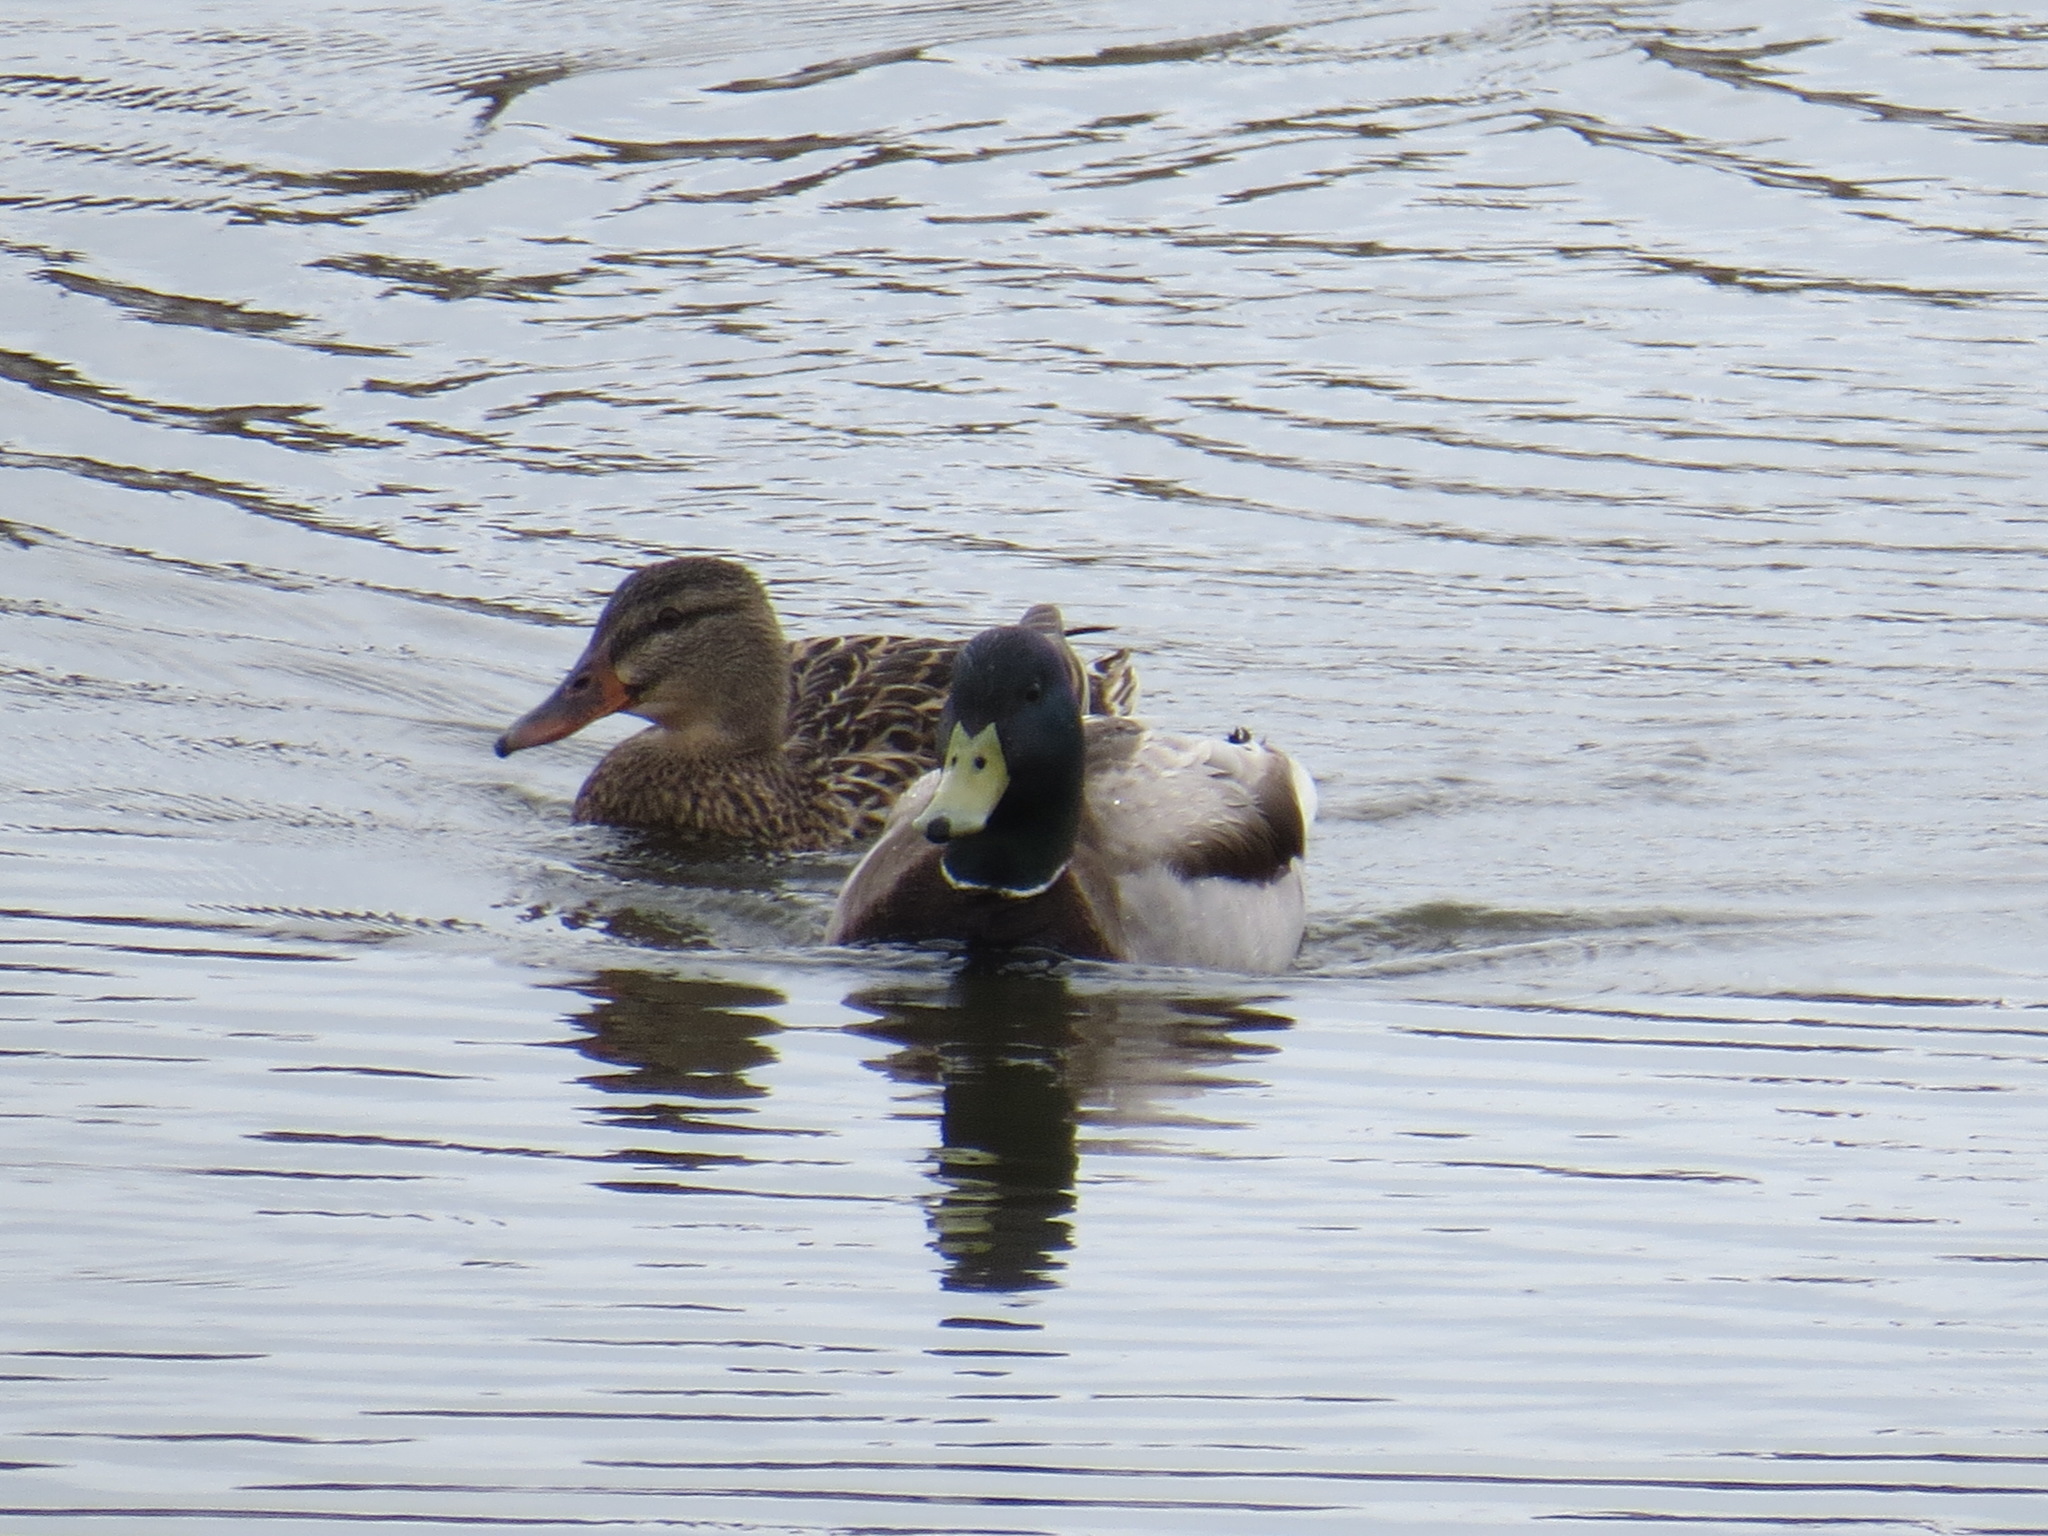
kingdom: Animalia
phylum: Chordata
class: Aves
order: Anseriformes
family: Anatidae
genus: Anas
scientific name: Anas platyrhynchos
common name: Mallard
